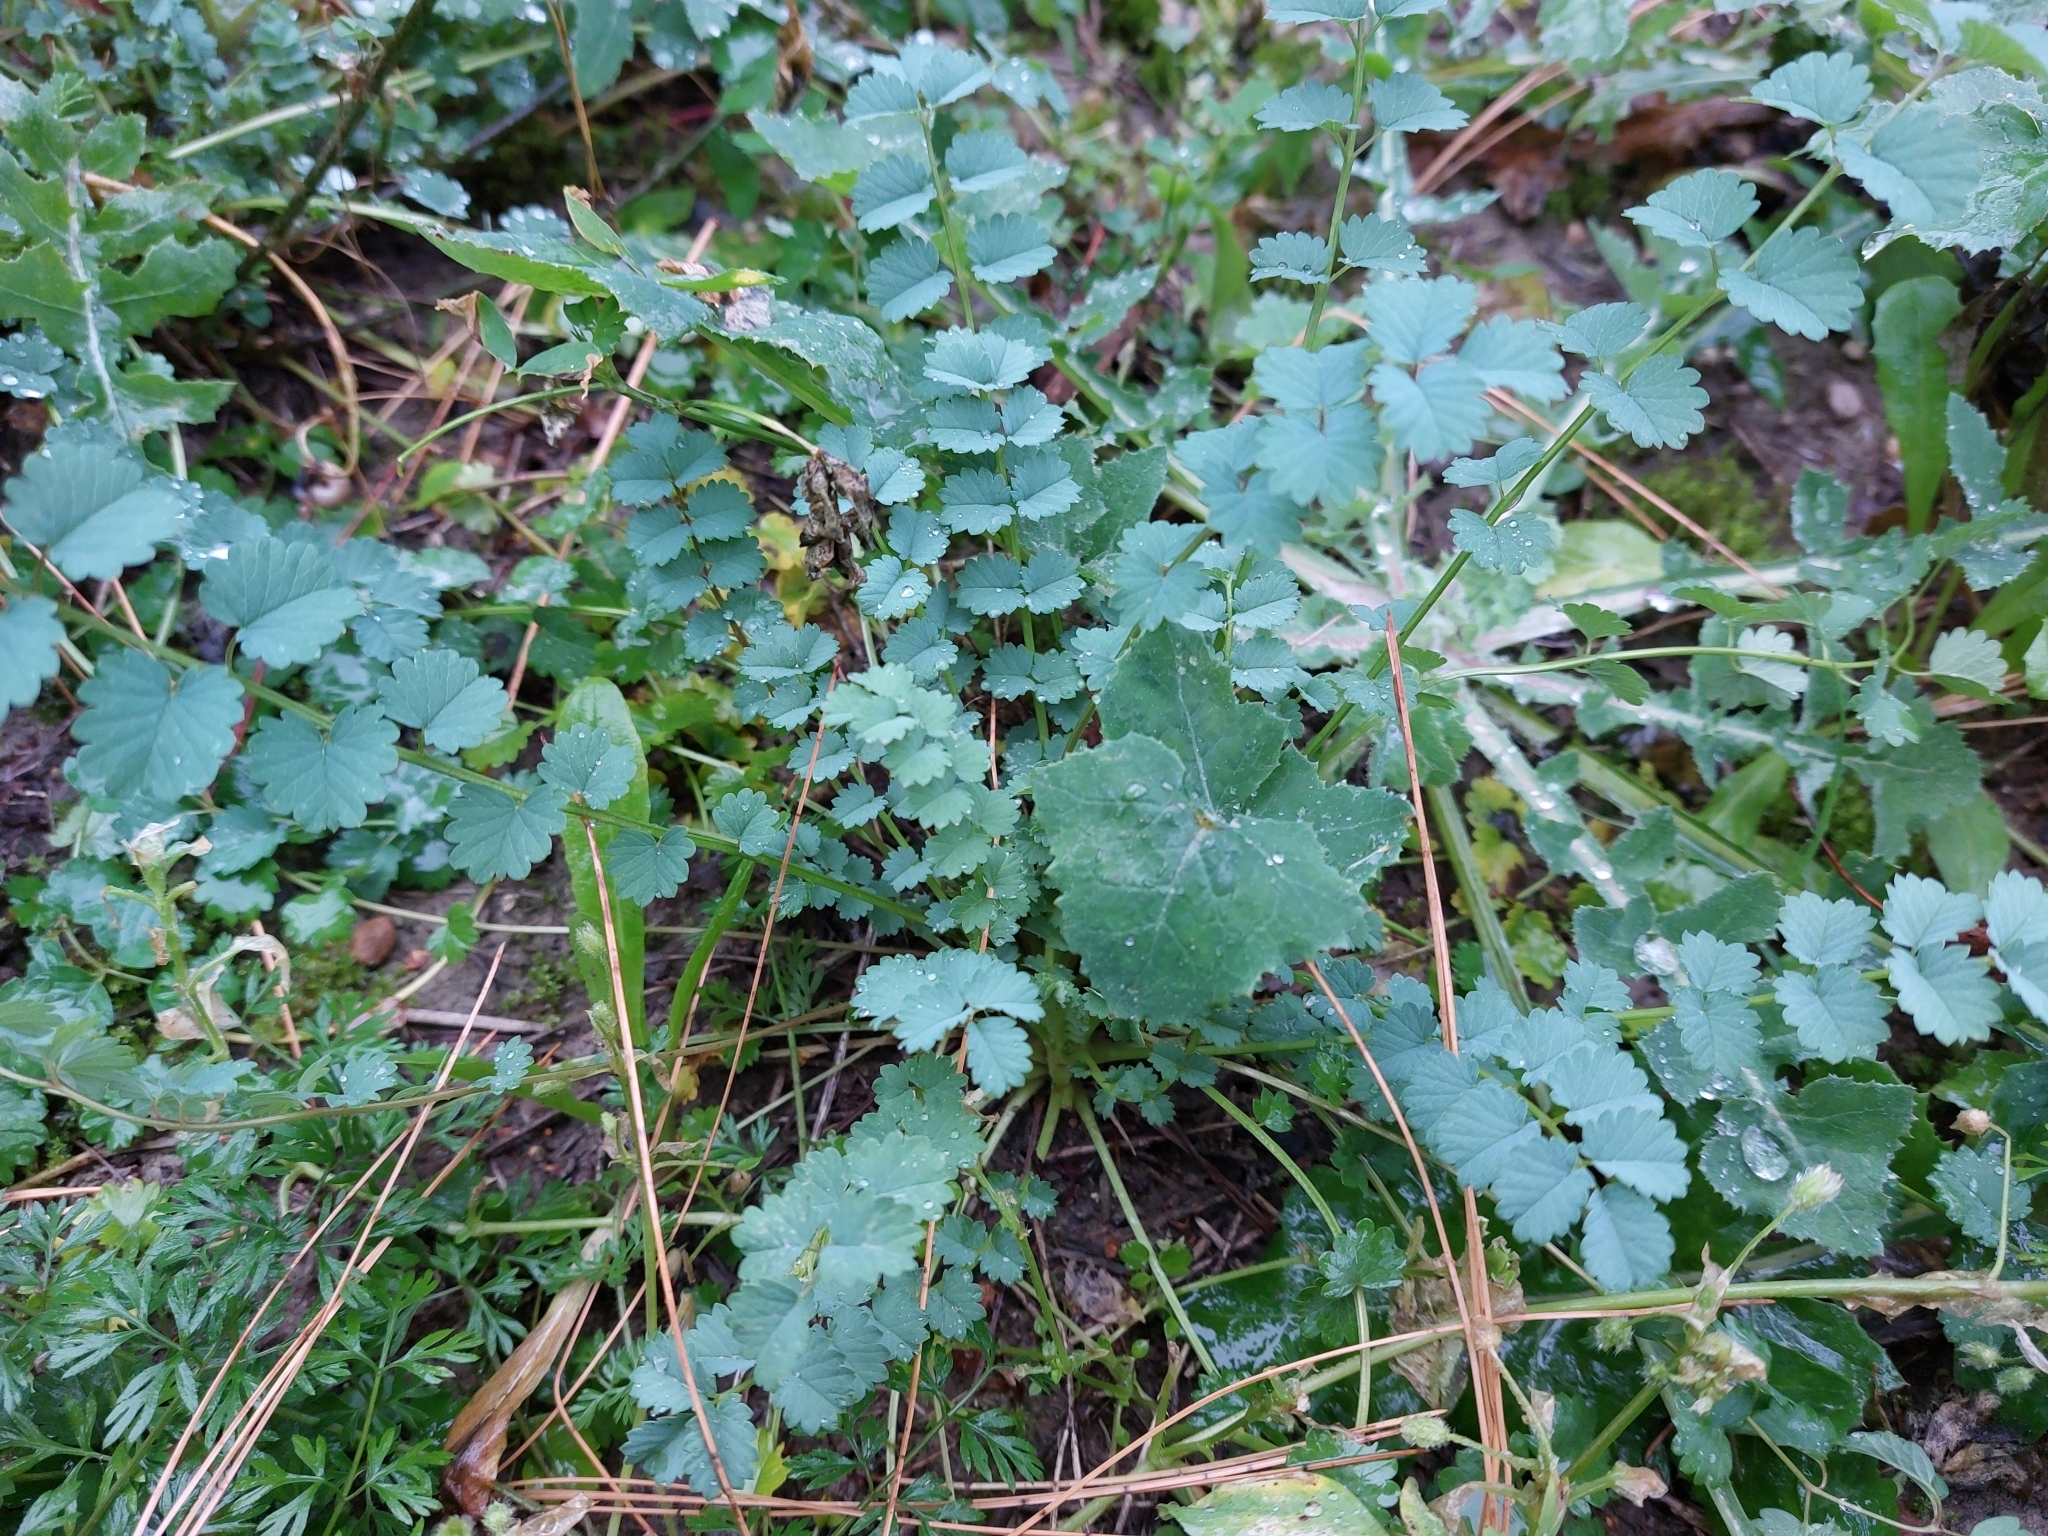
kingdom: Plantae
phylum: Tracheophyta
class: Magnoliopsida
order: Rosales
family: Rosaceae
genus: Poterium
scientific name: Poterium sanguisorba
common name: Salad burnet
